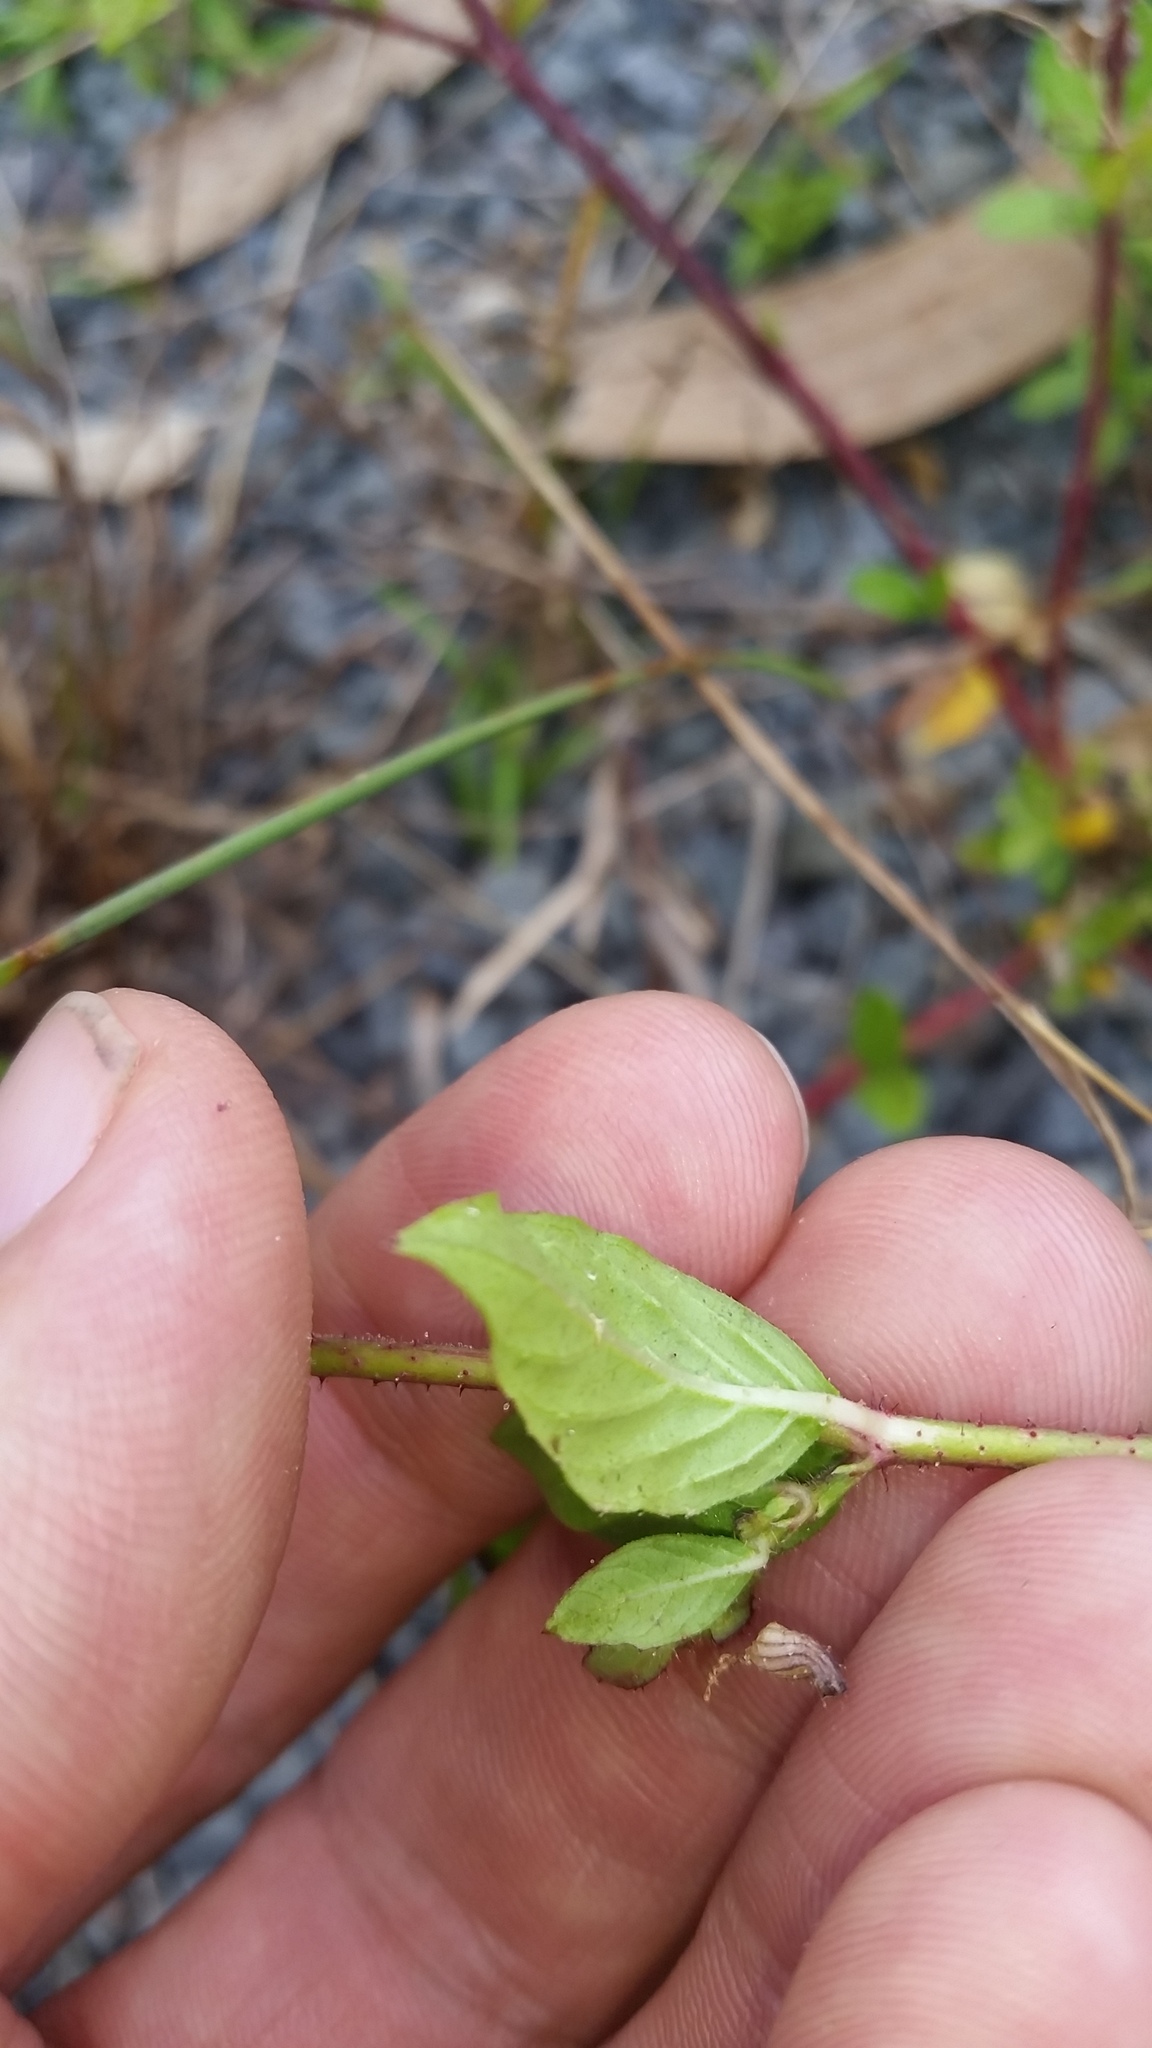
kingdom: Plantae
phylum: Tracheophyta
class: Magnoliopsida
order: Myrtales
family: Lythraceae
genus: Cuphea
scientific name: Cuphea carthagenensis
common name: Colombian waxweed
